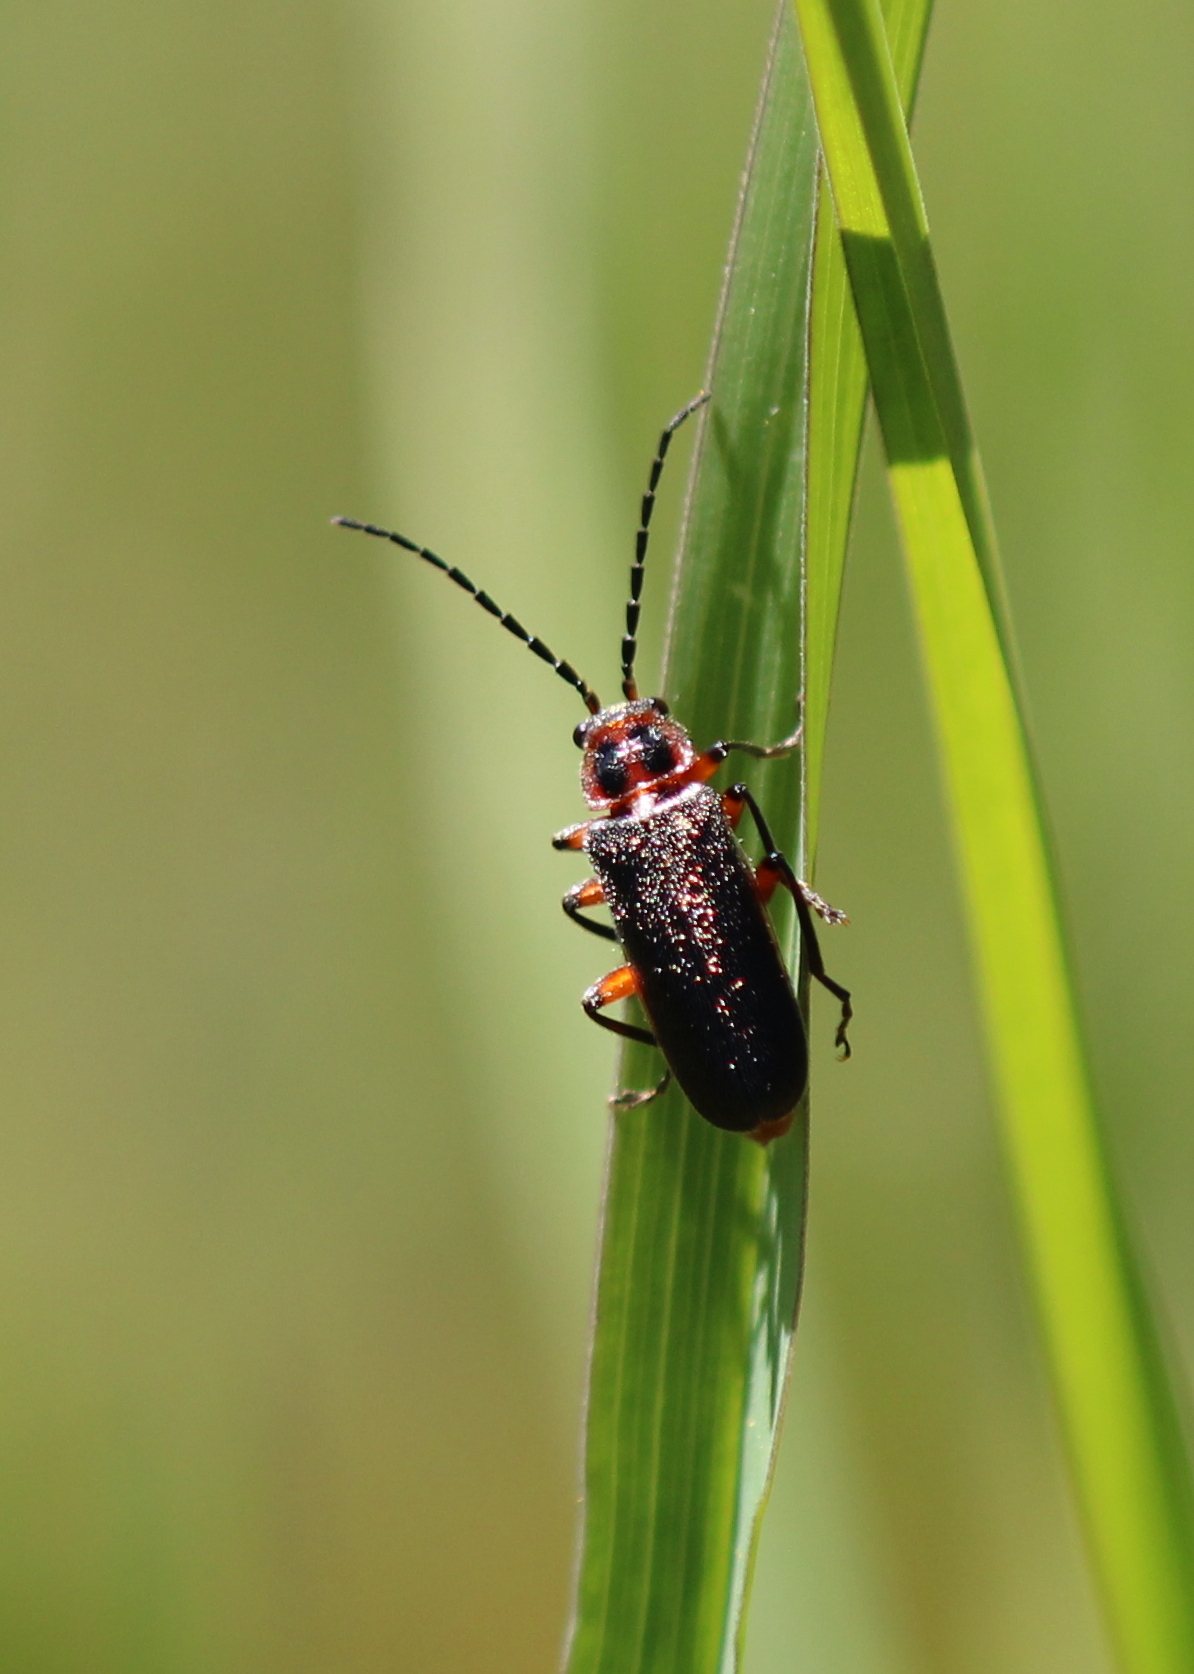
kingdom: Animalia
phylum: Arthropoda
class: Insecta
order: Coleoptera
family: Cantharidae
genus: Atalantycha
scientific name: Atalantycha bilineata
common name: Two-lined leatherwing
